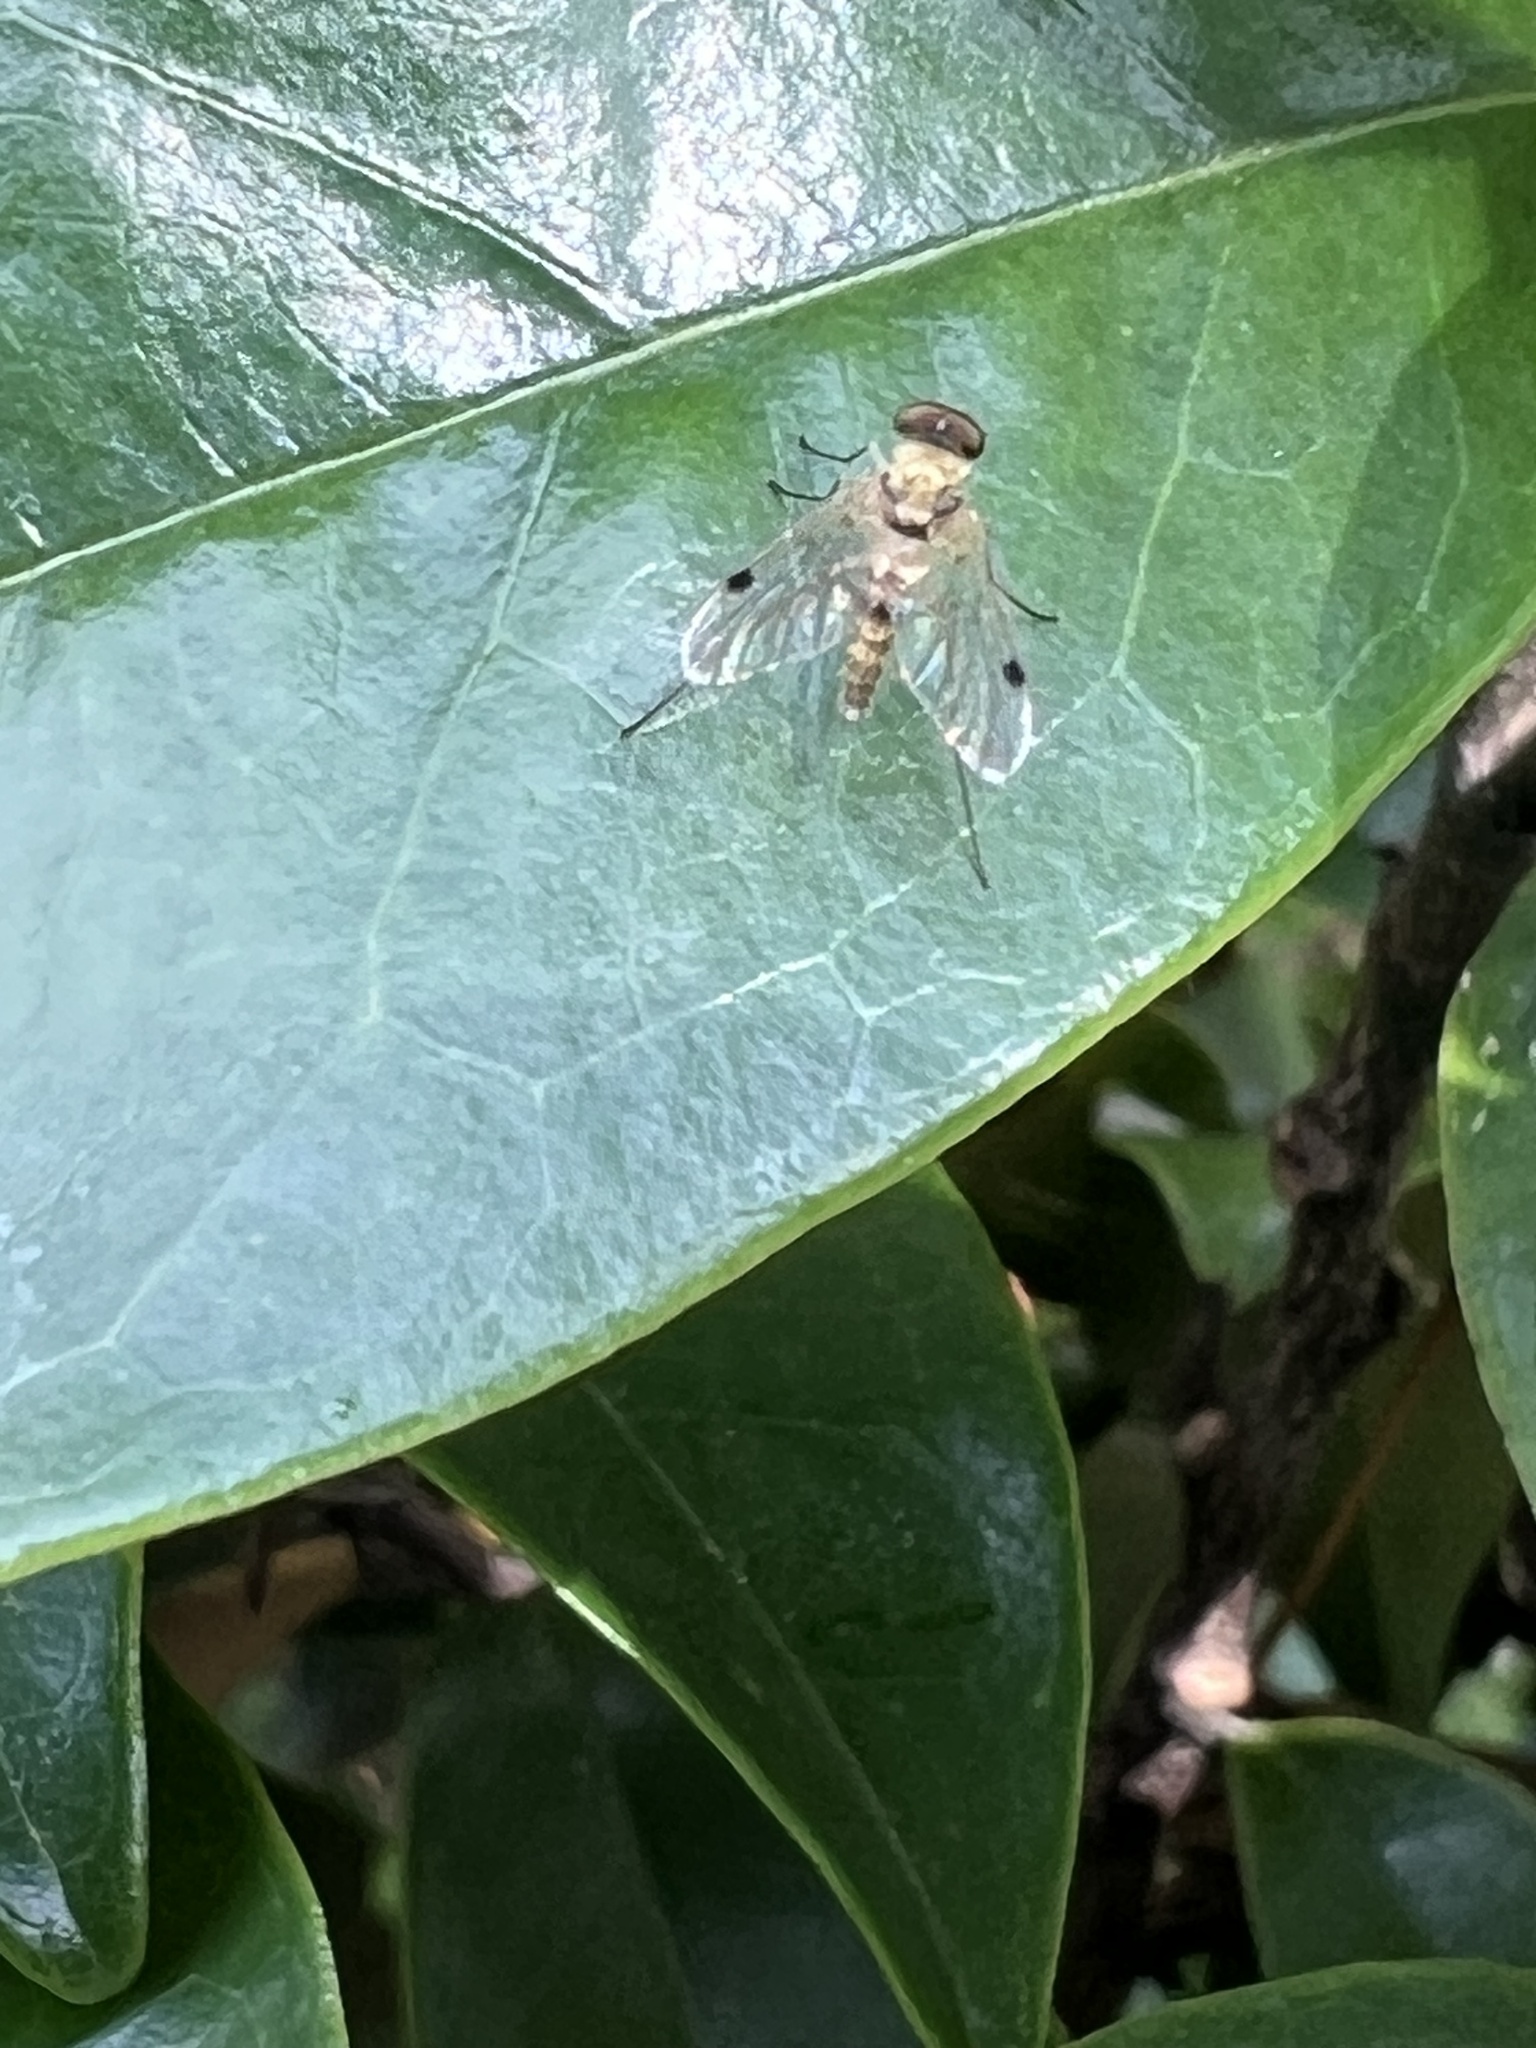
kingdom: Animalia
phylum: Arthropoda
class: Insecta
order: Diptera
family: Rhagionidae
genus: Chrysopilus
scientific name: Chrysopilus modestus
